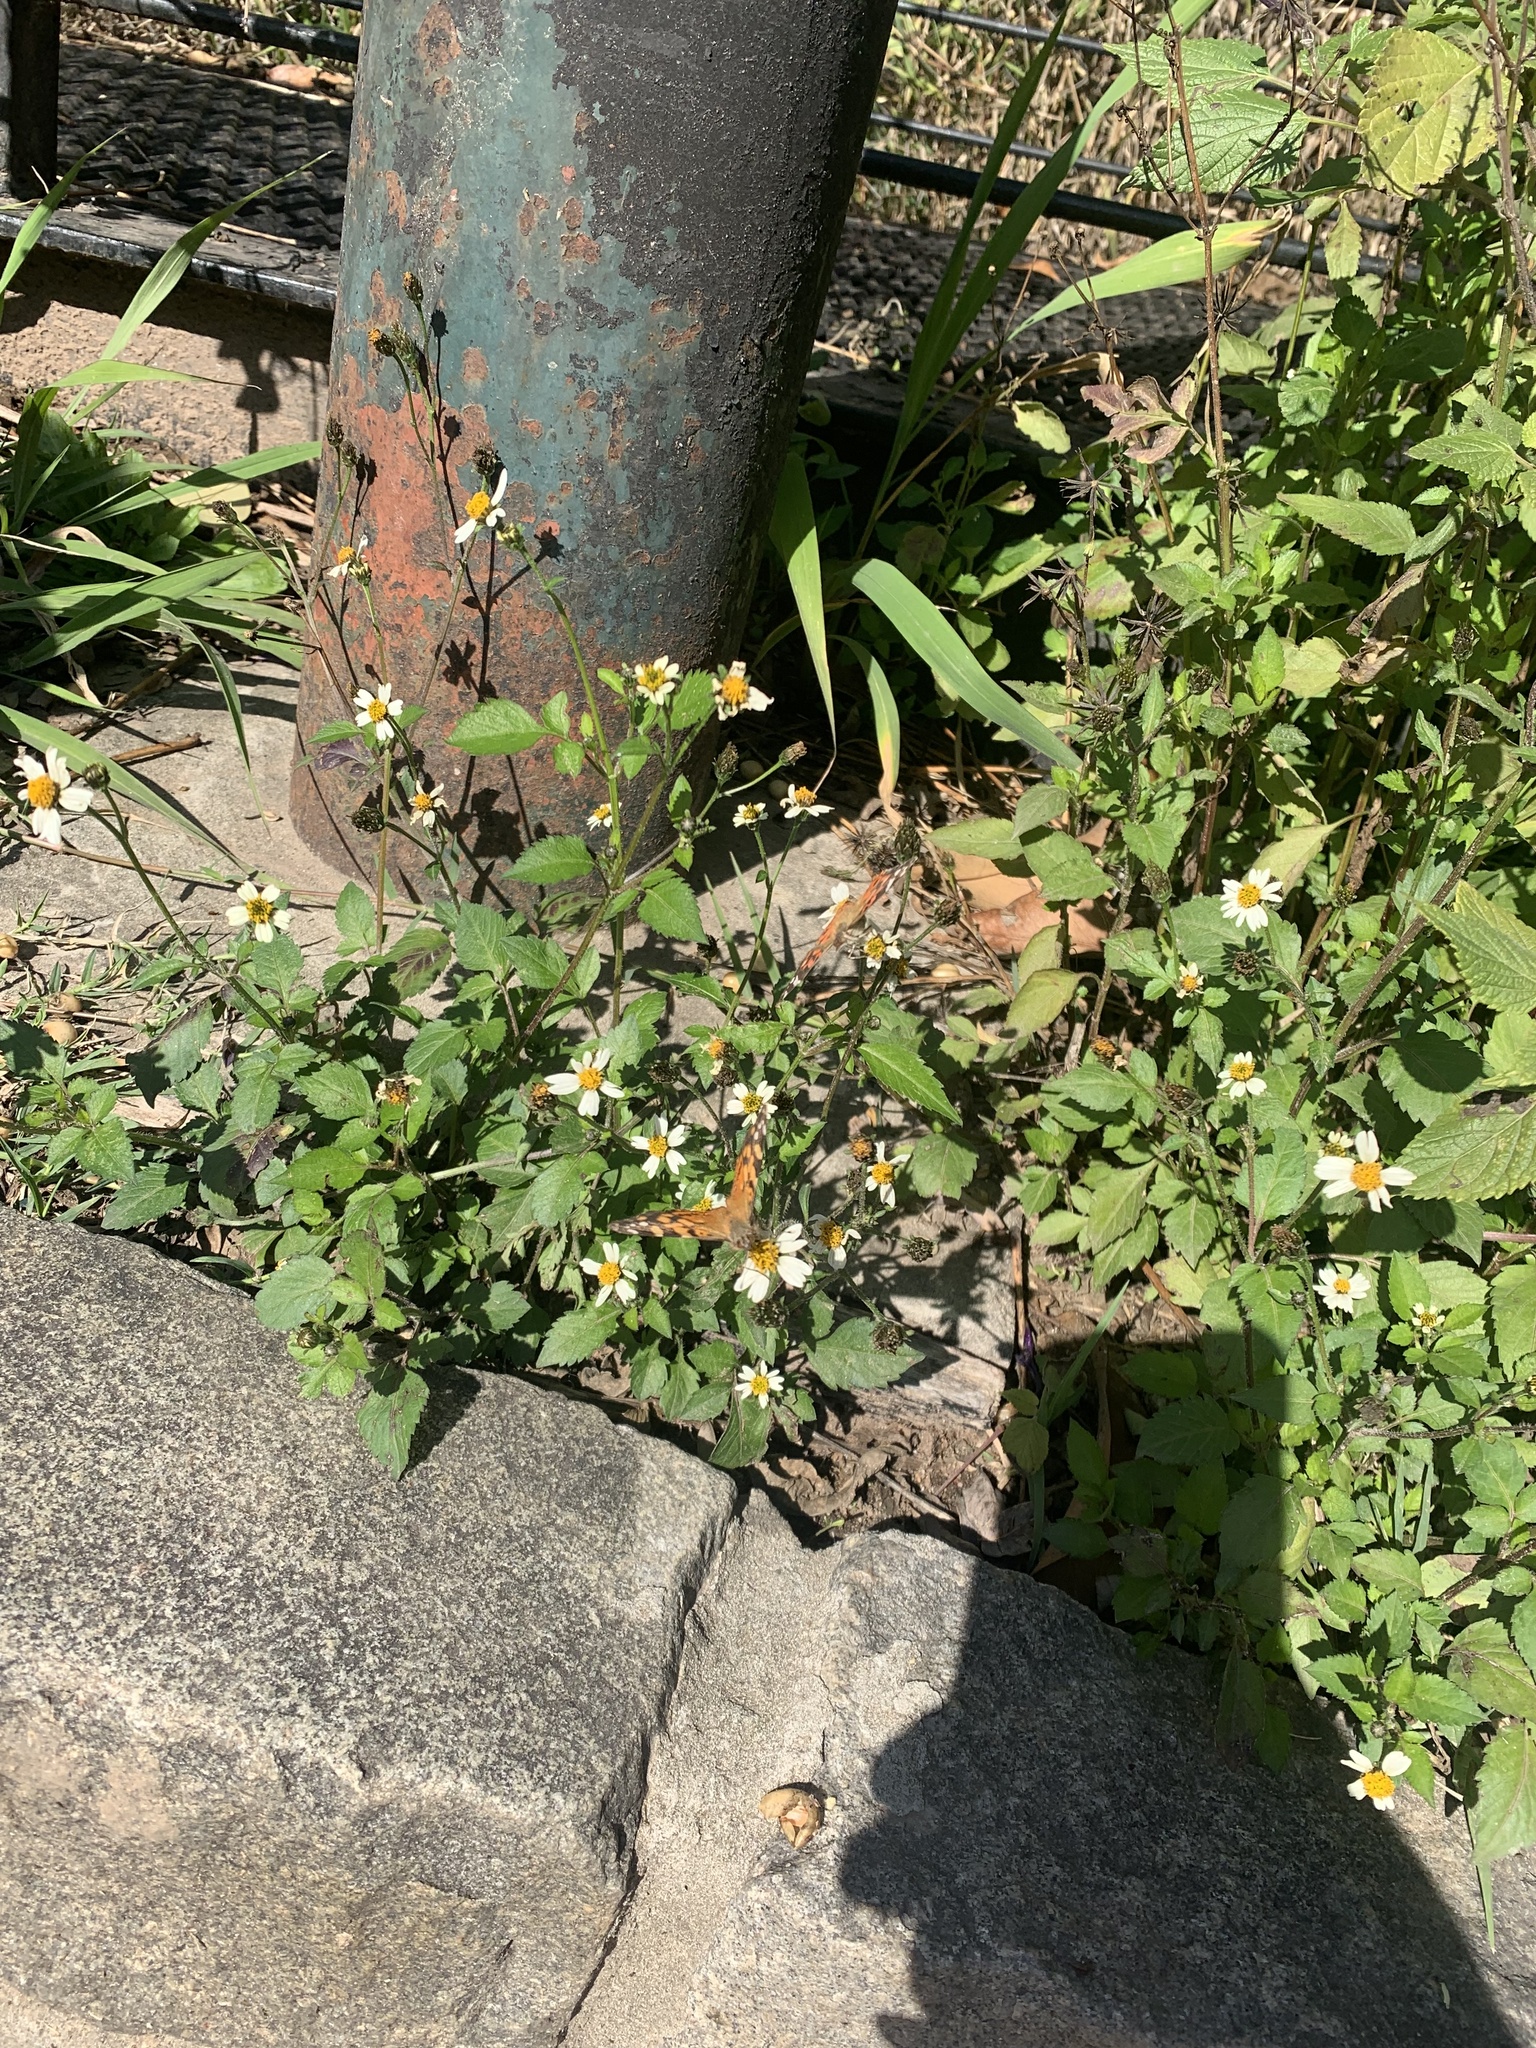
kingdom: Animalia
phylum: Arthropoda
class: Insecta
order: Lepidoptera
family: Nymphalidae
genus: Vanessa
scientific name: Vanessa carye
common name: Subtropical lady
